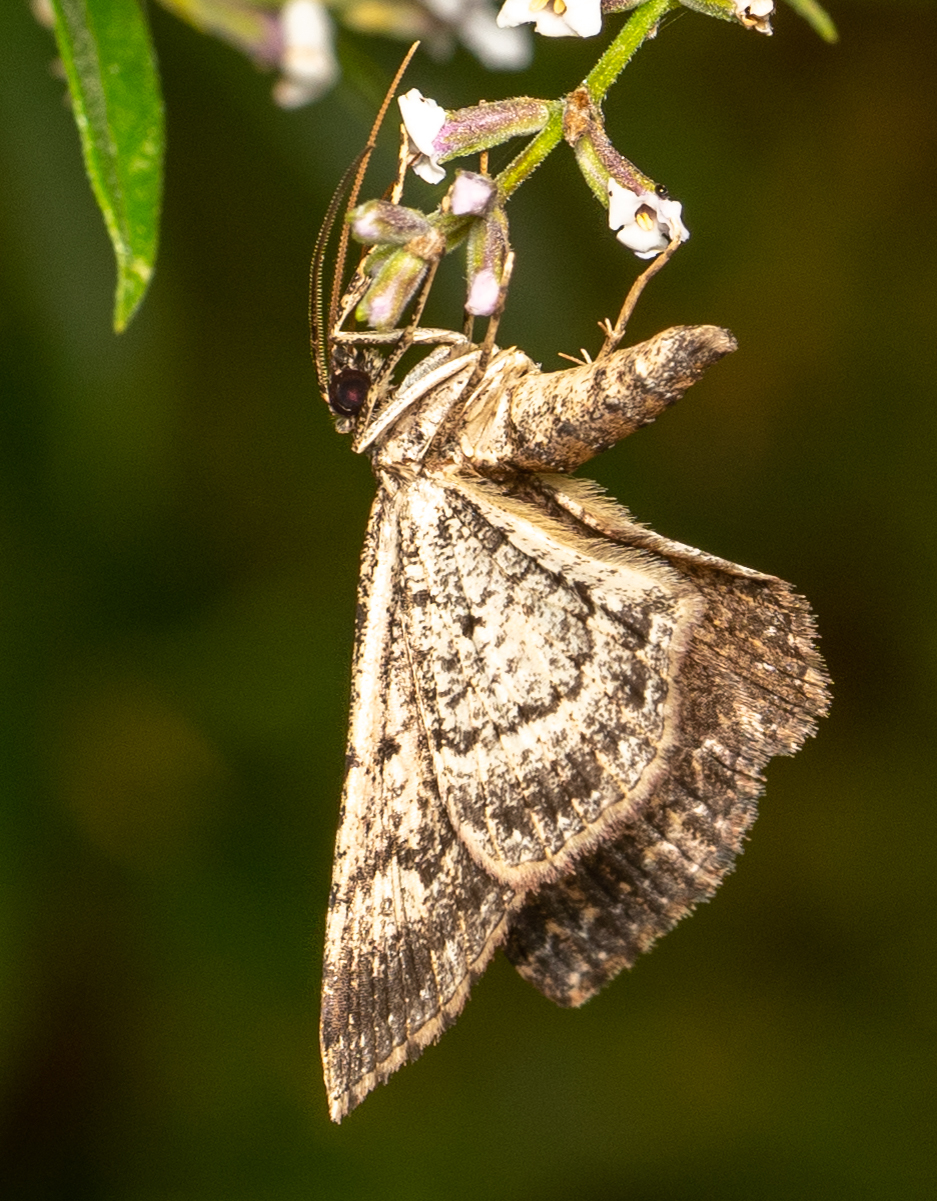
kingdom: Animalia
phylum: Arthropoda
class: Insecta
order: Lepidoptera
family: Geometridae
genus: Disclisioprocta
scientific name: Disclisioprocta stellata
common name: Somber carpet
